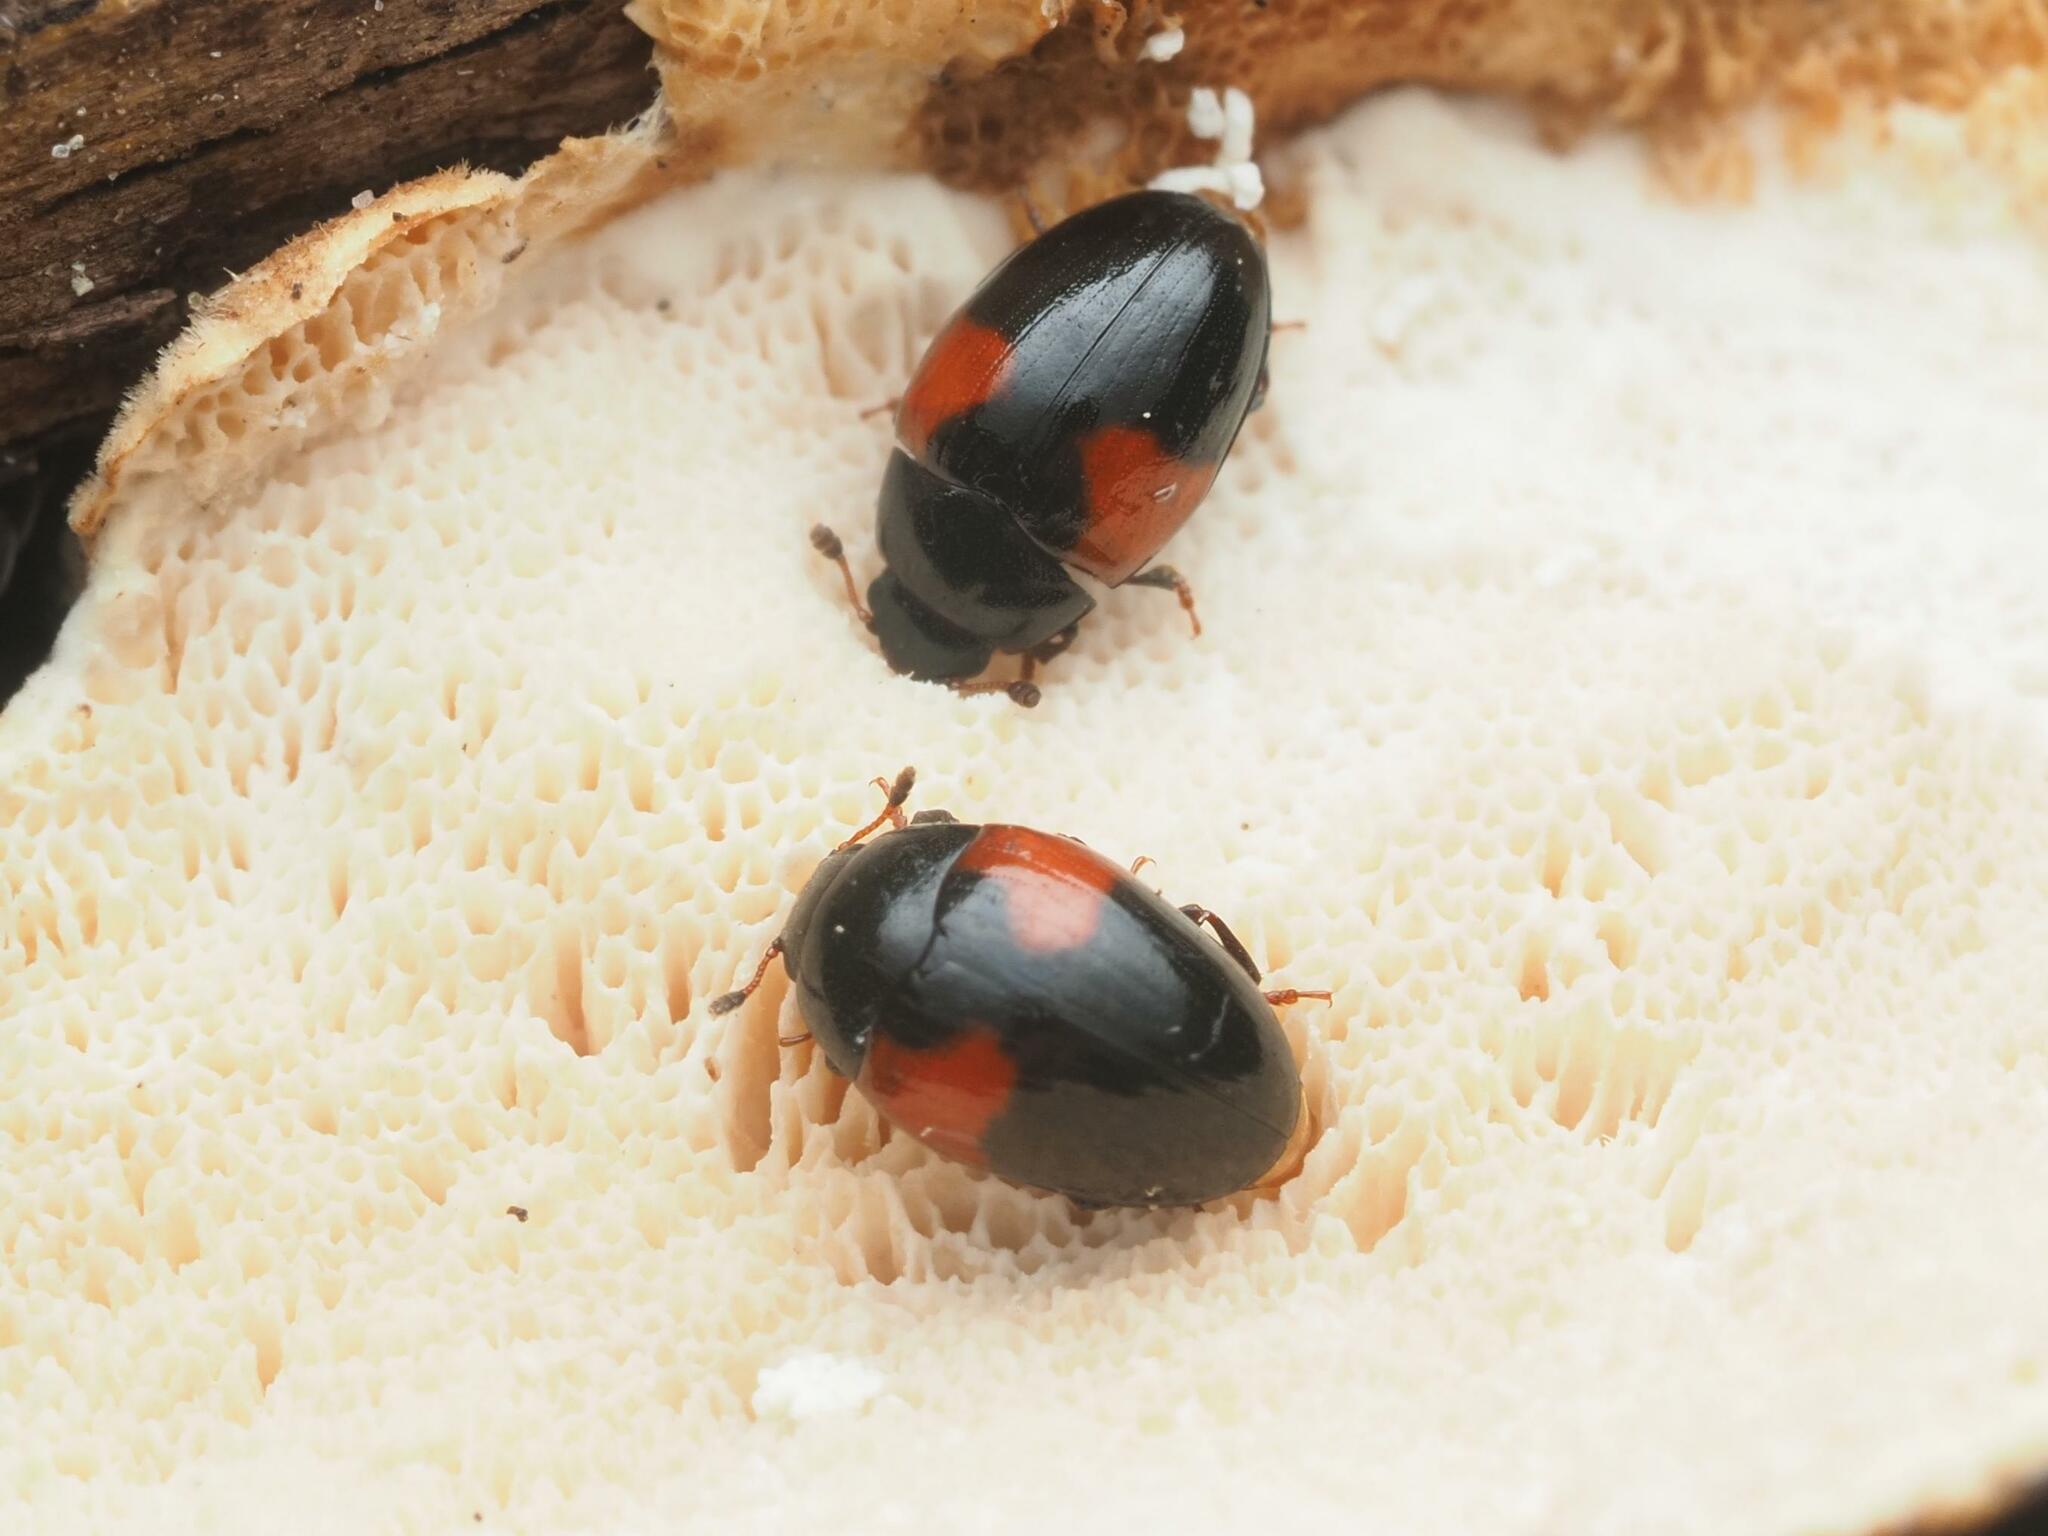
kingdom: Animalia
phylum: Arthropoda
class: Insecta
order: Coleoptera
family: Erotylidae
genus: Tritoma
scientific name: Tritoma bipustulata
